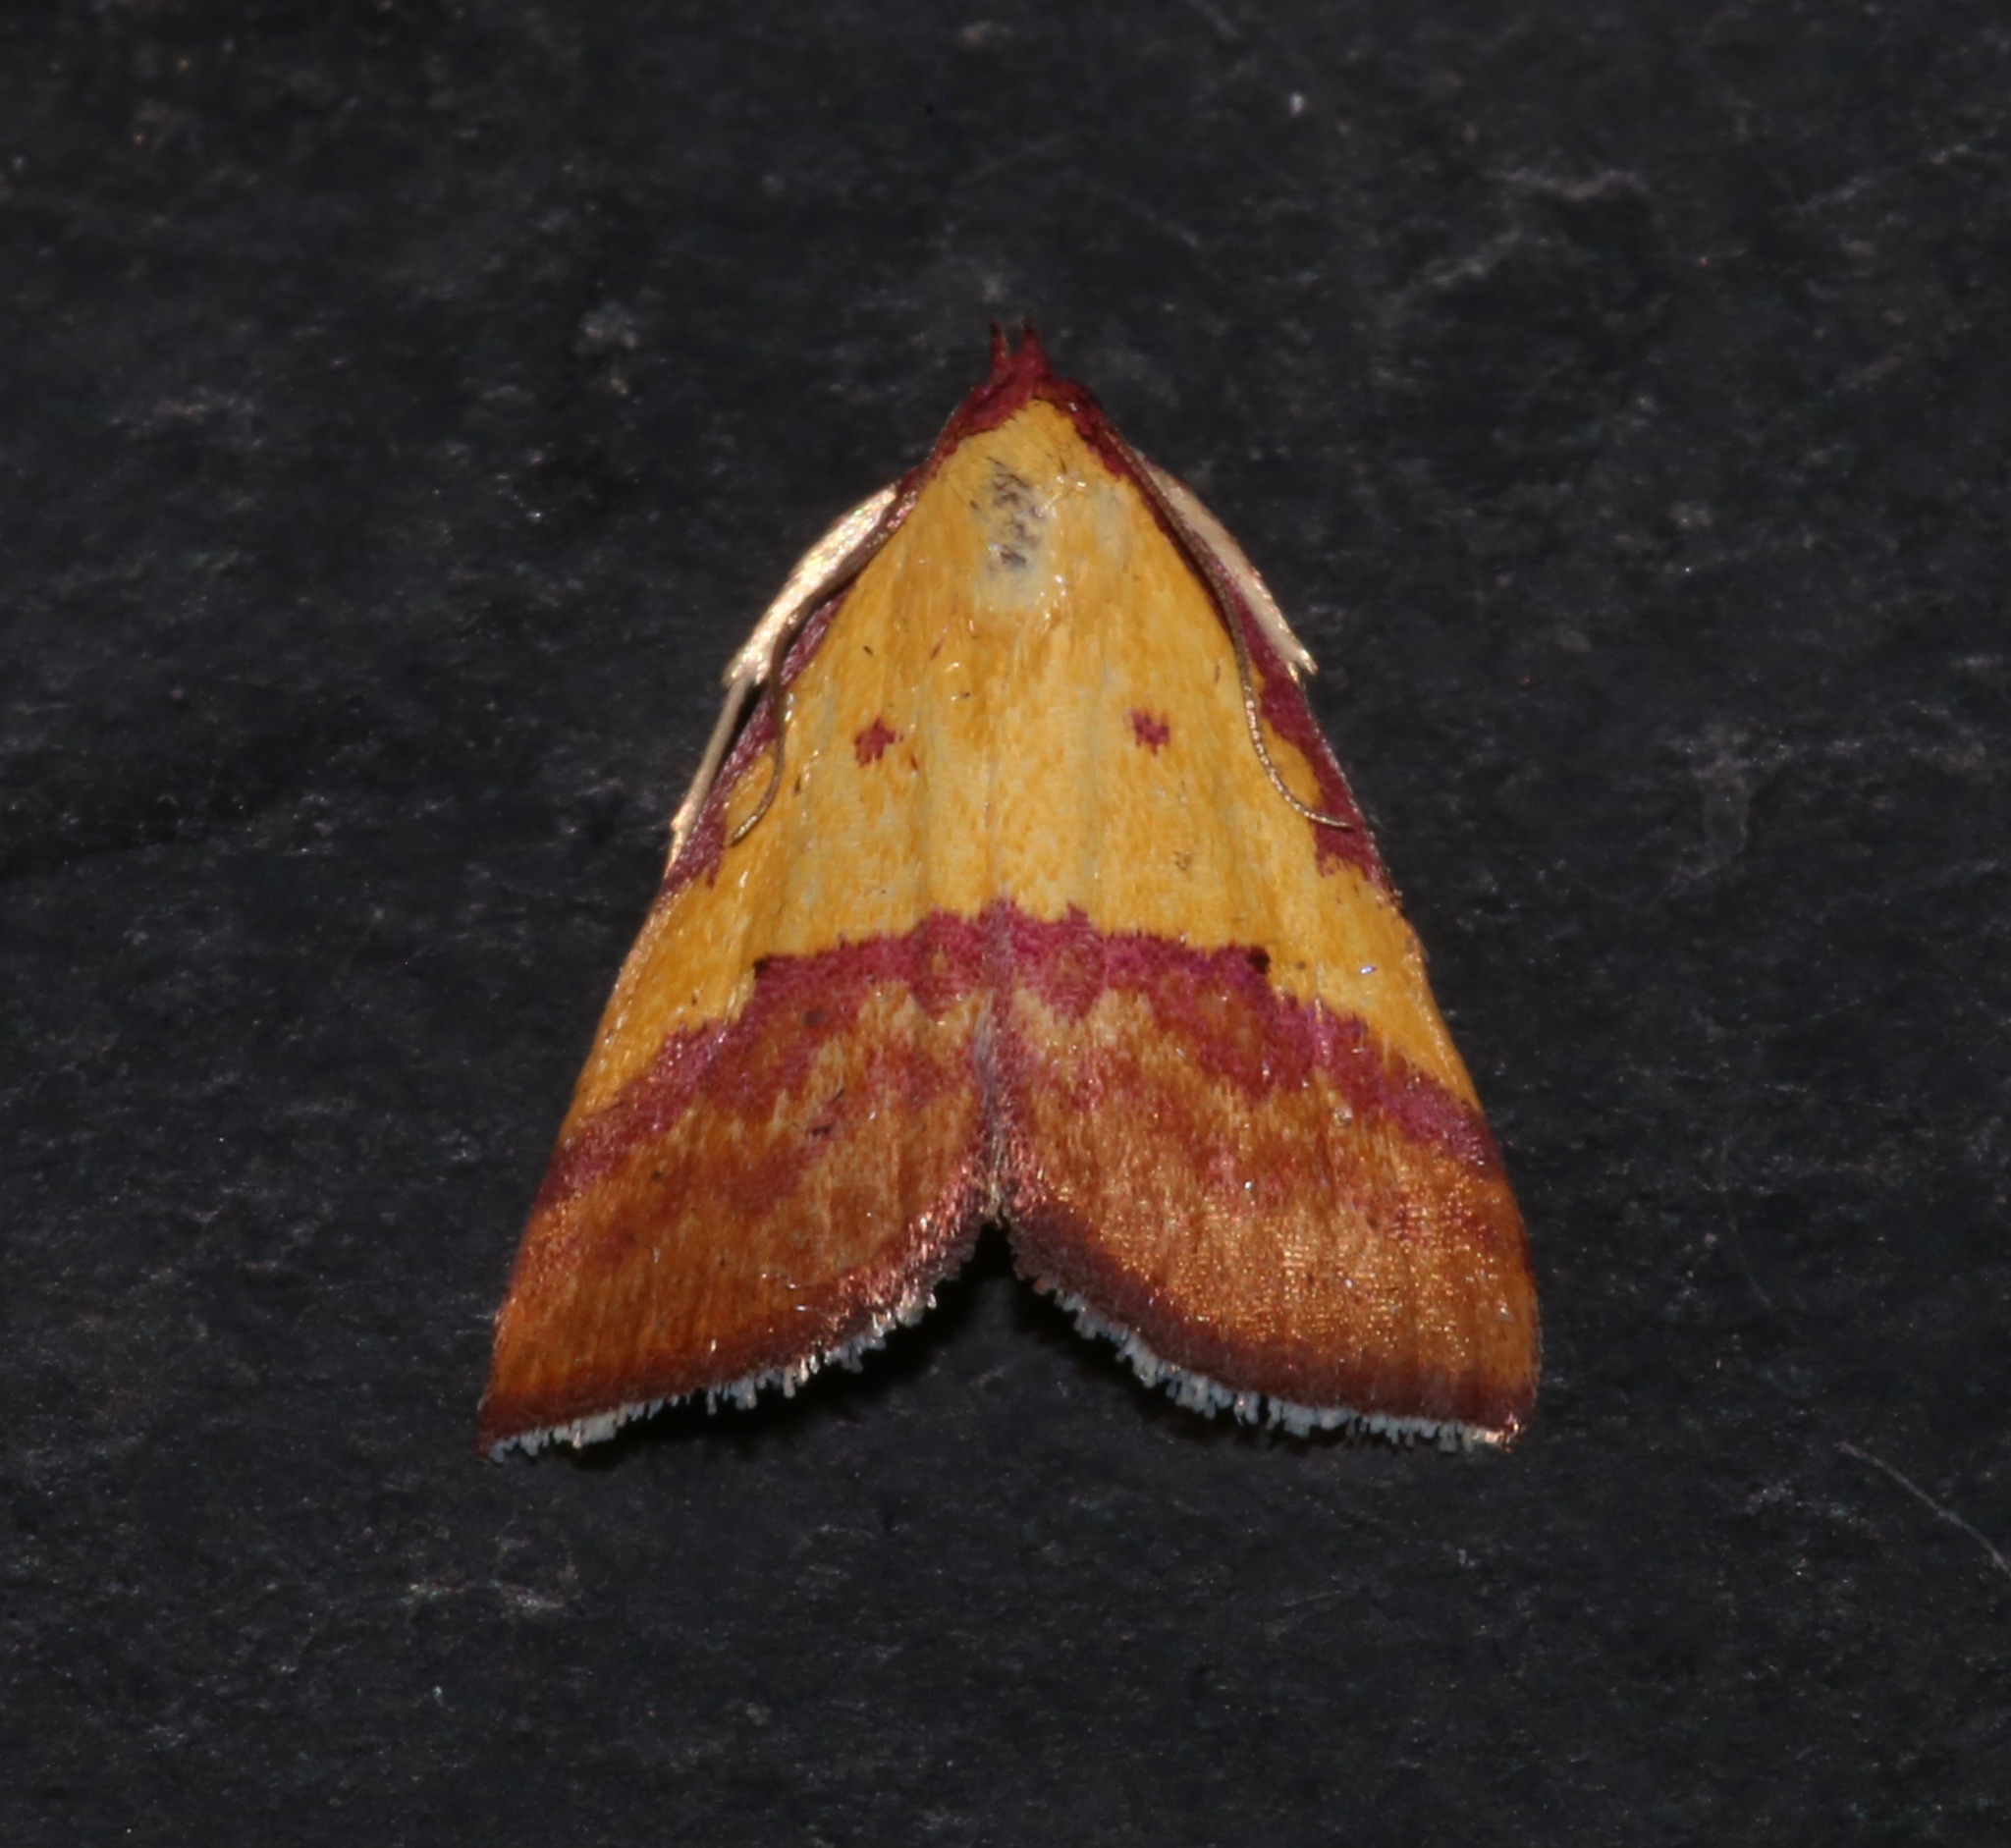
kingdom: Animalia
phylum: Arthropoda
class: Insecta
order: Lepidoptera
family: Erebidae
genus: Phytometra
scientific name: Phytometra rhodarialis
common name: Pink-bordered yellow
